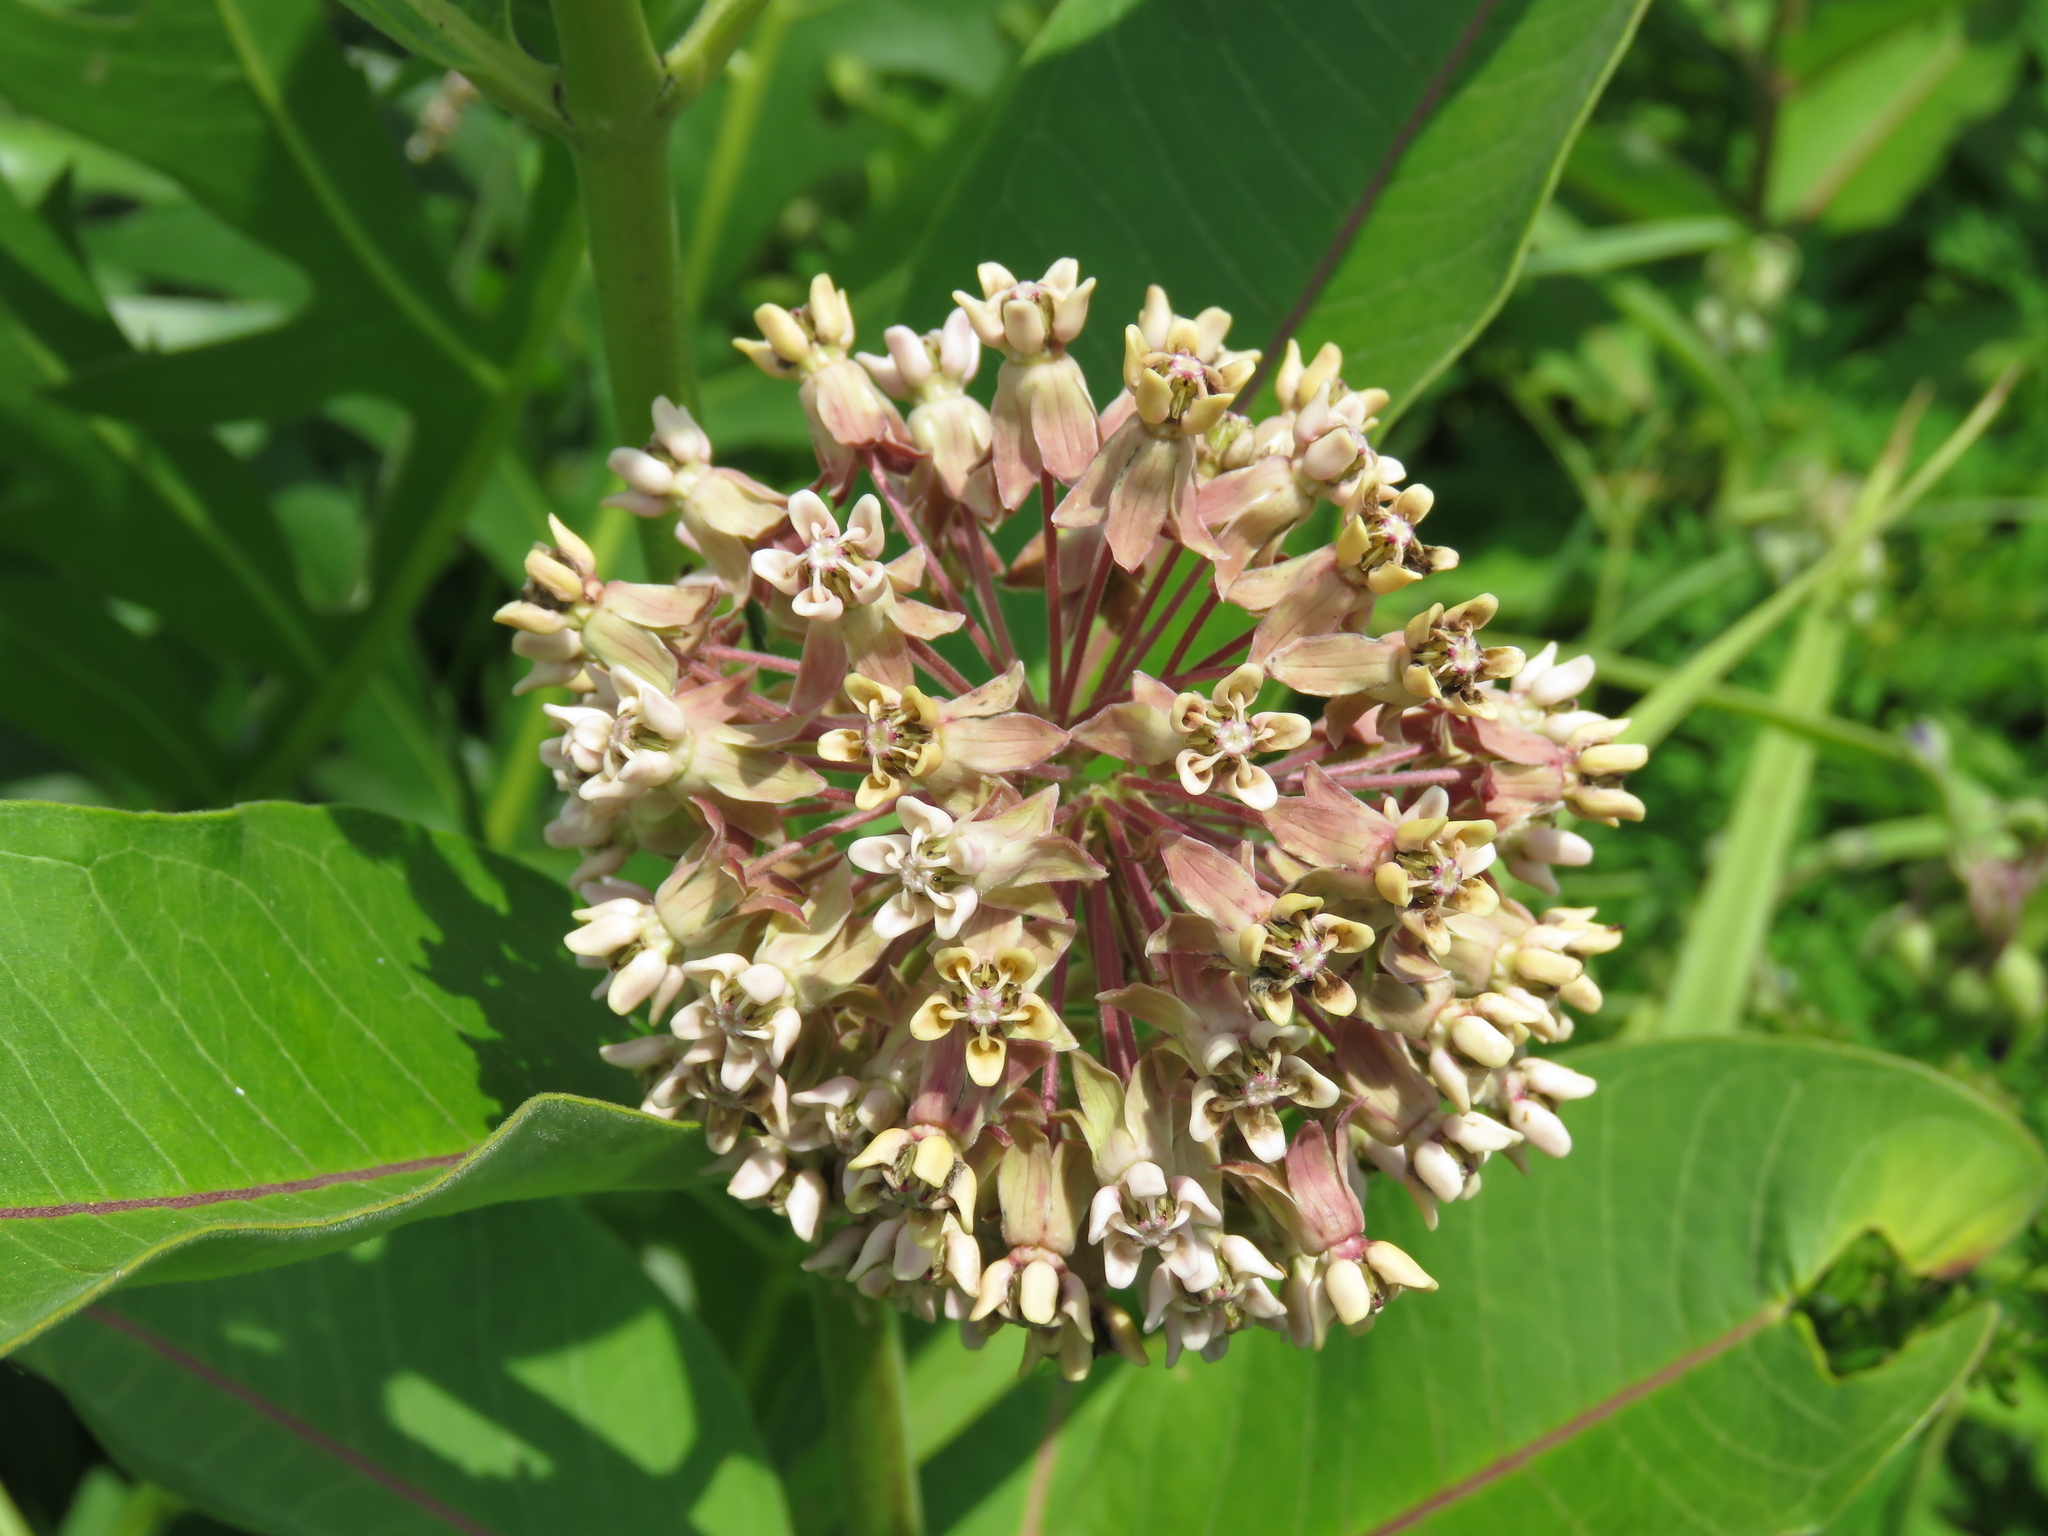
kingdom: Plantae
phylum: Tracheophyta
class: Magnoliopsida
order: Gentianales
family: Apocynaceae
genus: Asclepias
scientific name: Asclepias syriaca
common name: Common milkweed
